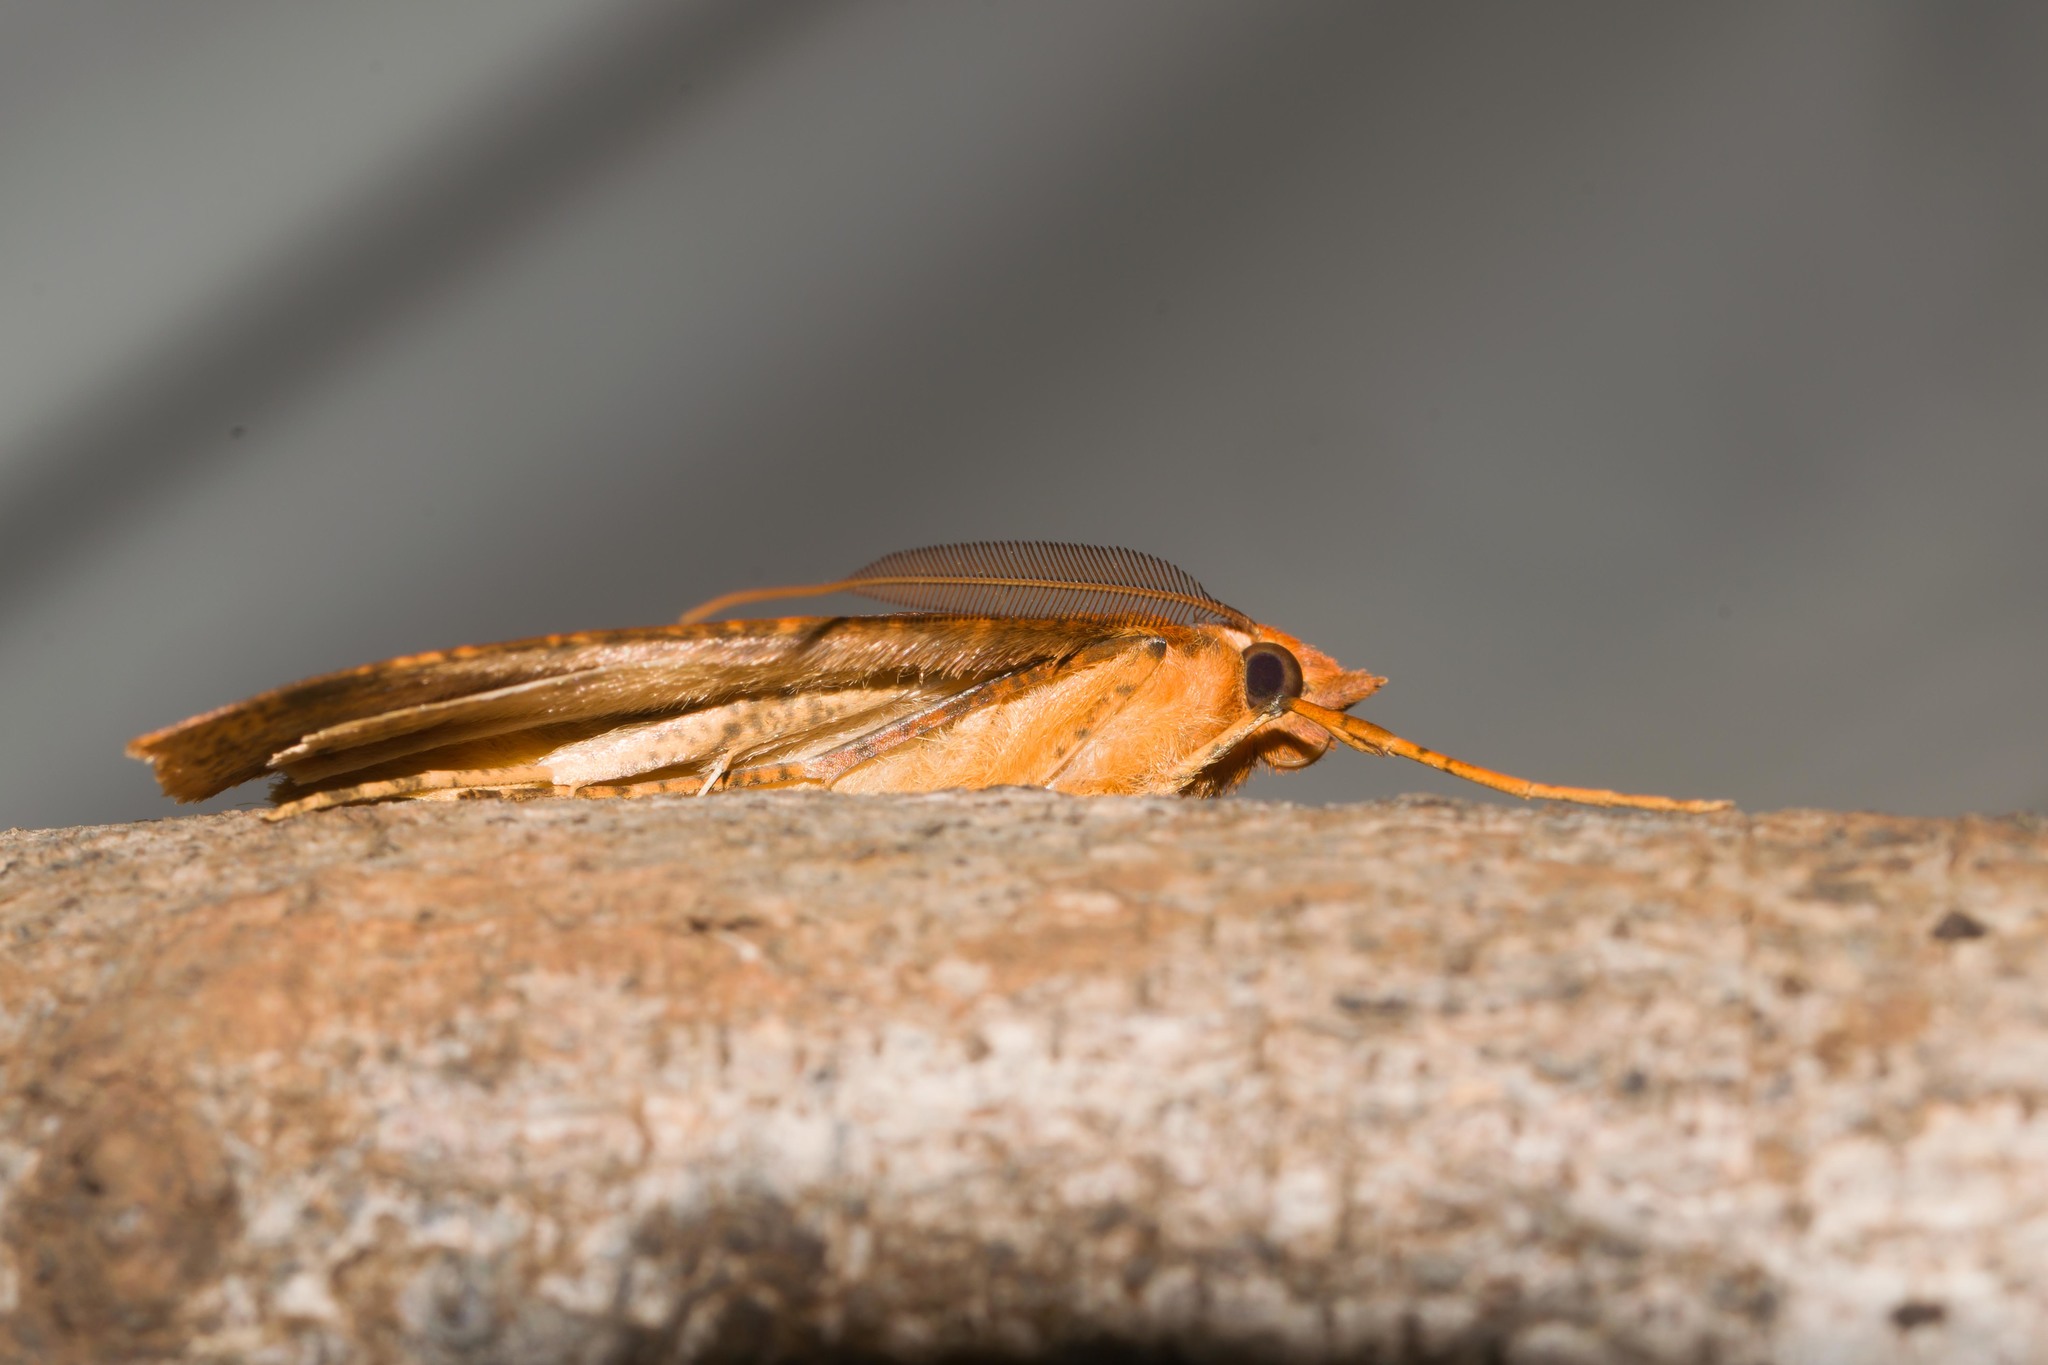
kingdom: Animalia
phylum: Arthropoda
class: Insecta
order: Lepidoptera
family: Geometridae
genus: Scotorythra
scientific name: Scotorythra epixantha
